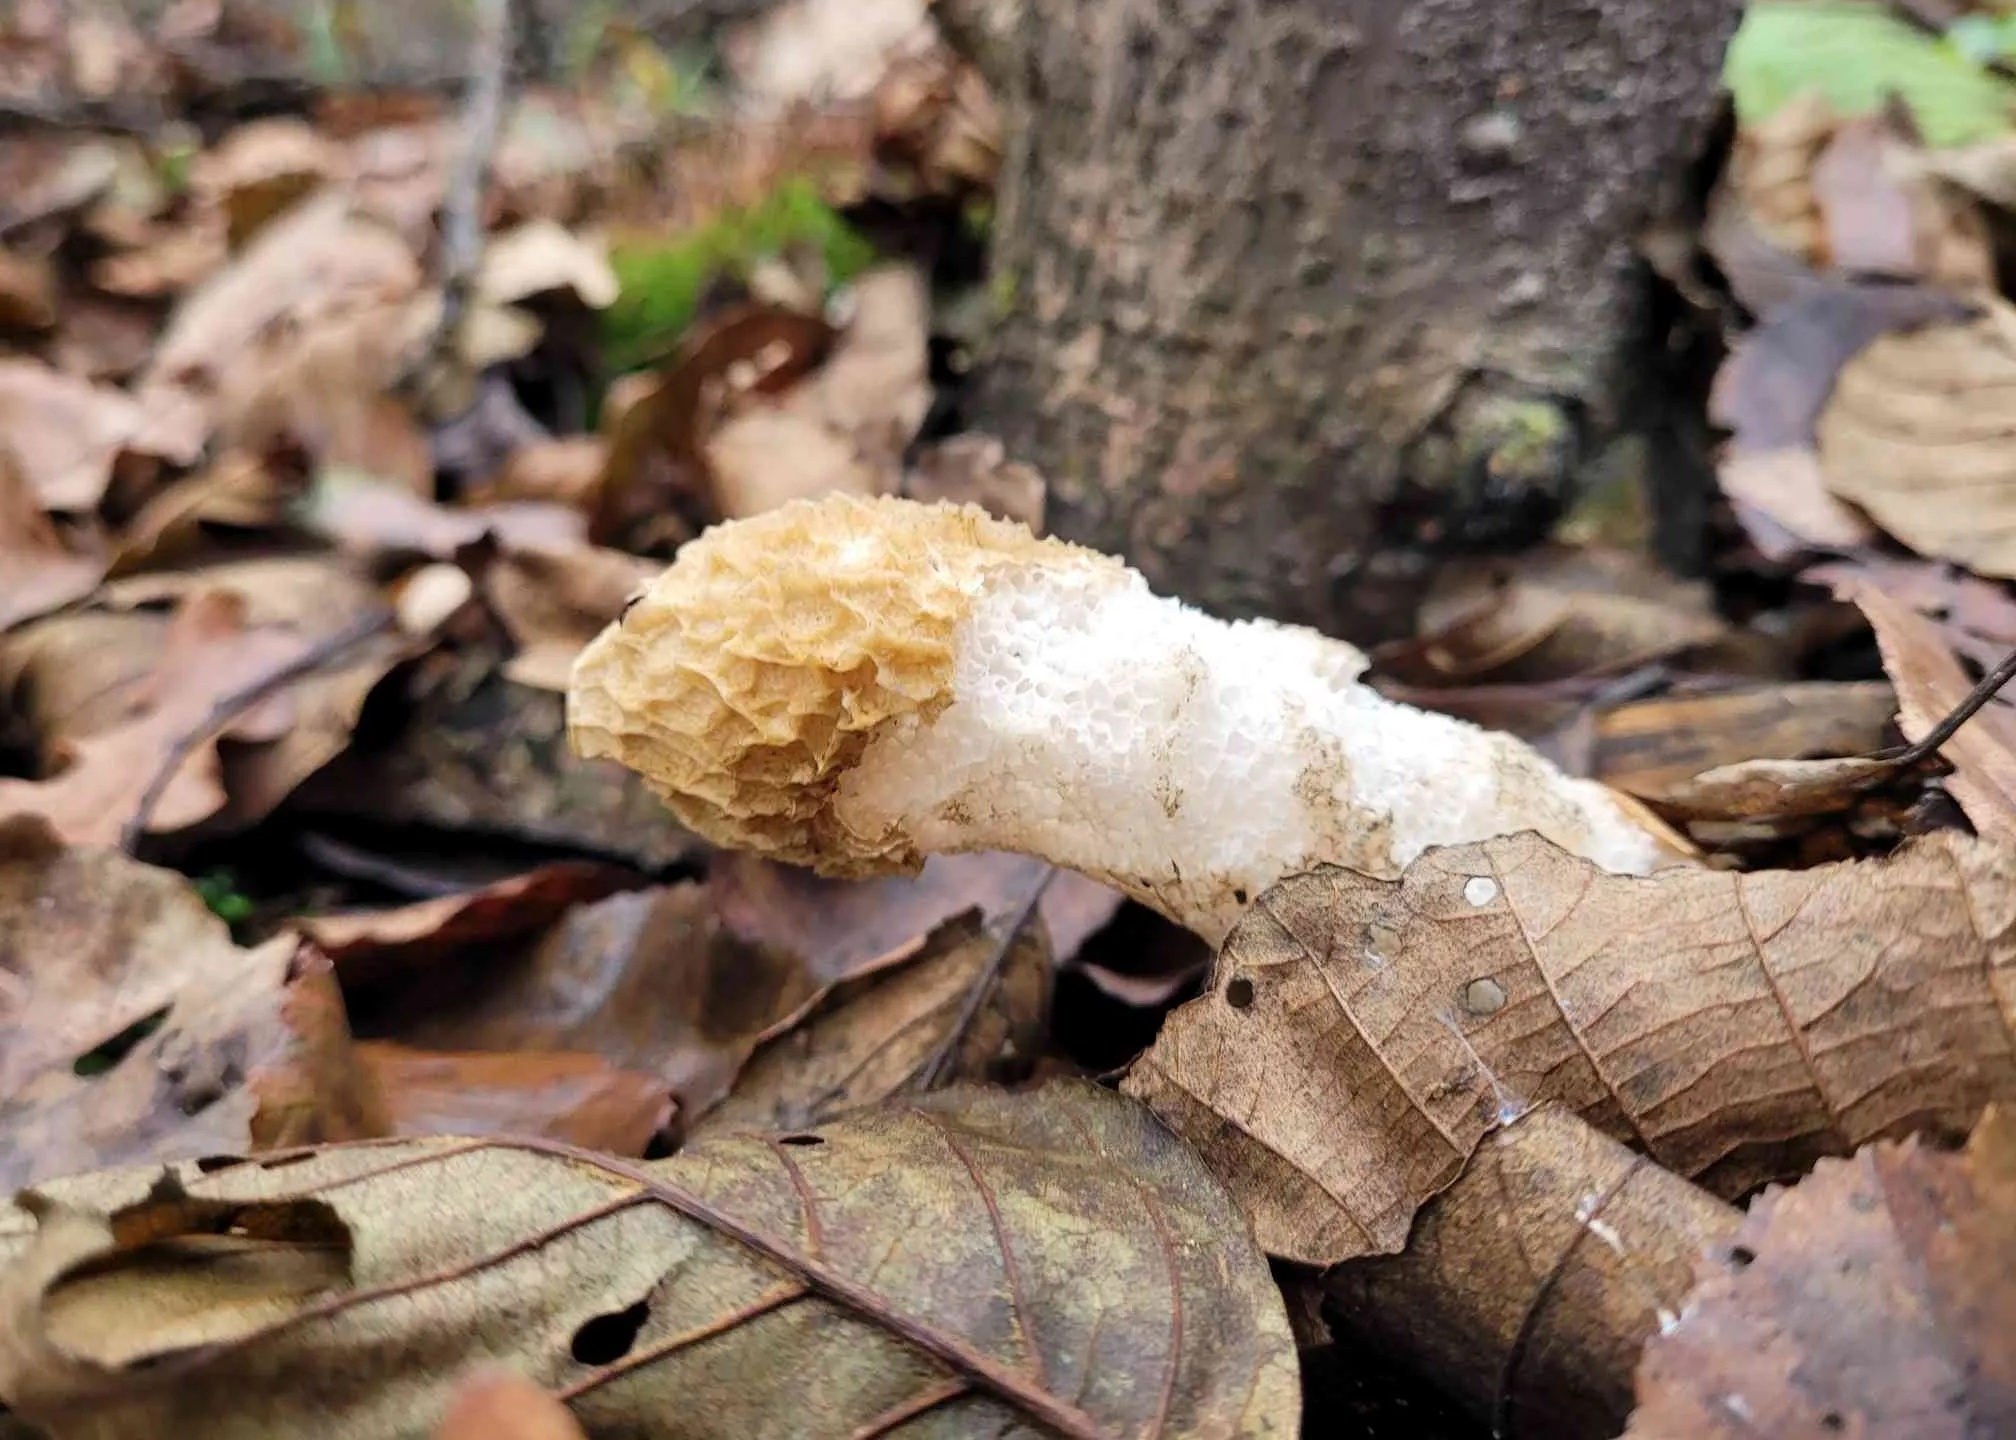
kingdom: Fungi
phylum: Basidiomycota
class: Agaricomycetes
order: Phallales
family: Phallaceae
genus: Phallus
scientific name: Phallus impudicus
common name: Common stinkhorn
